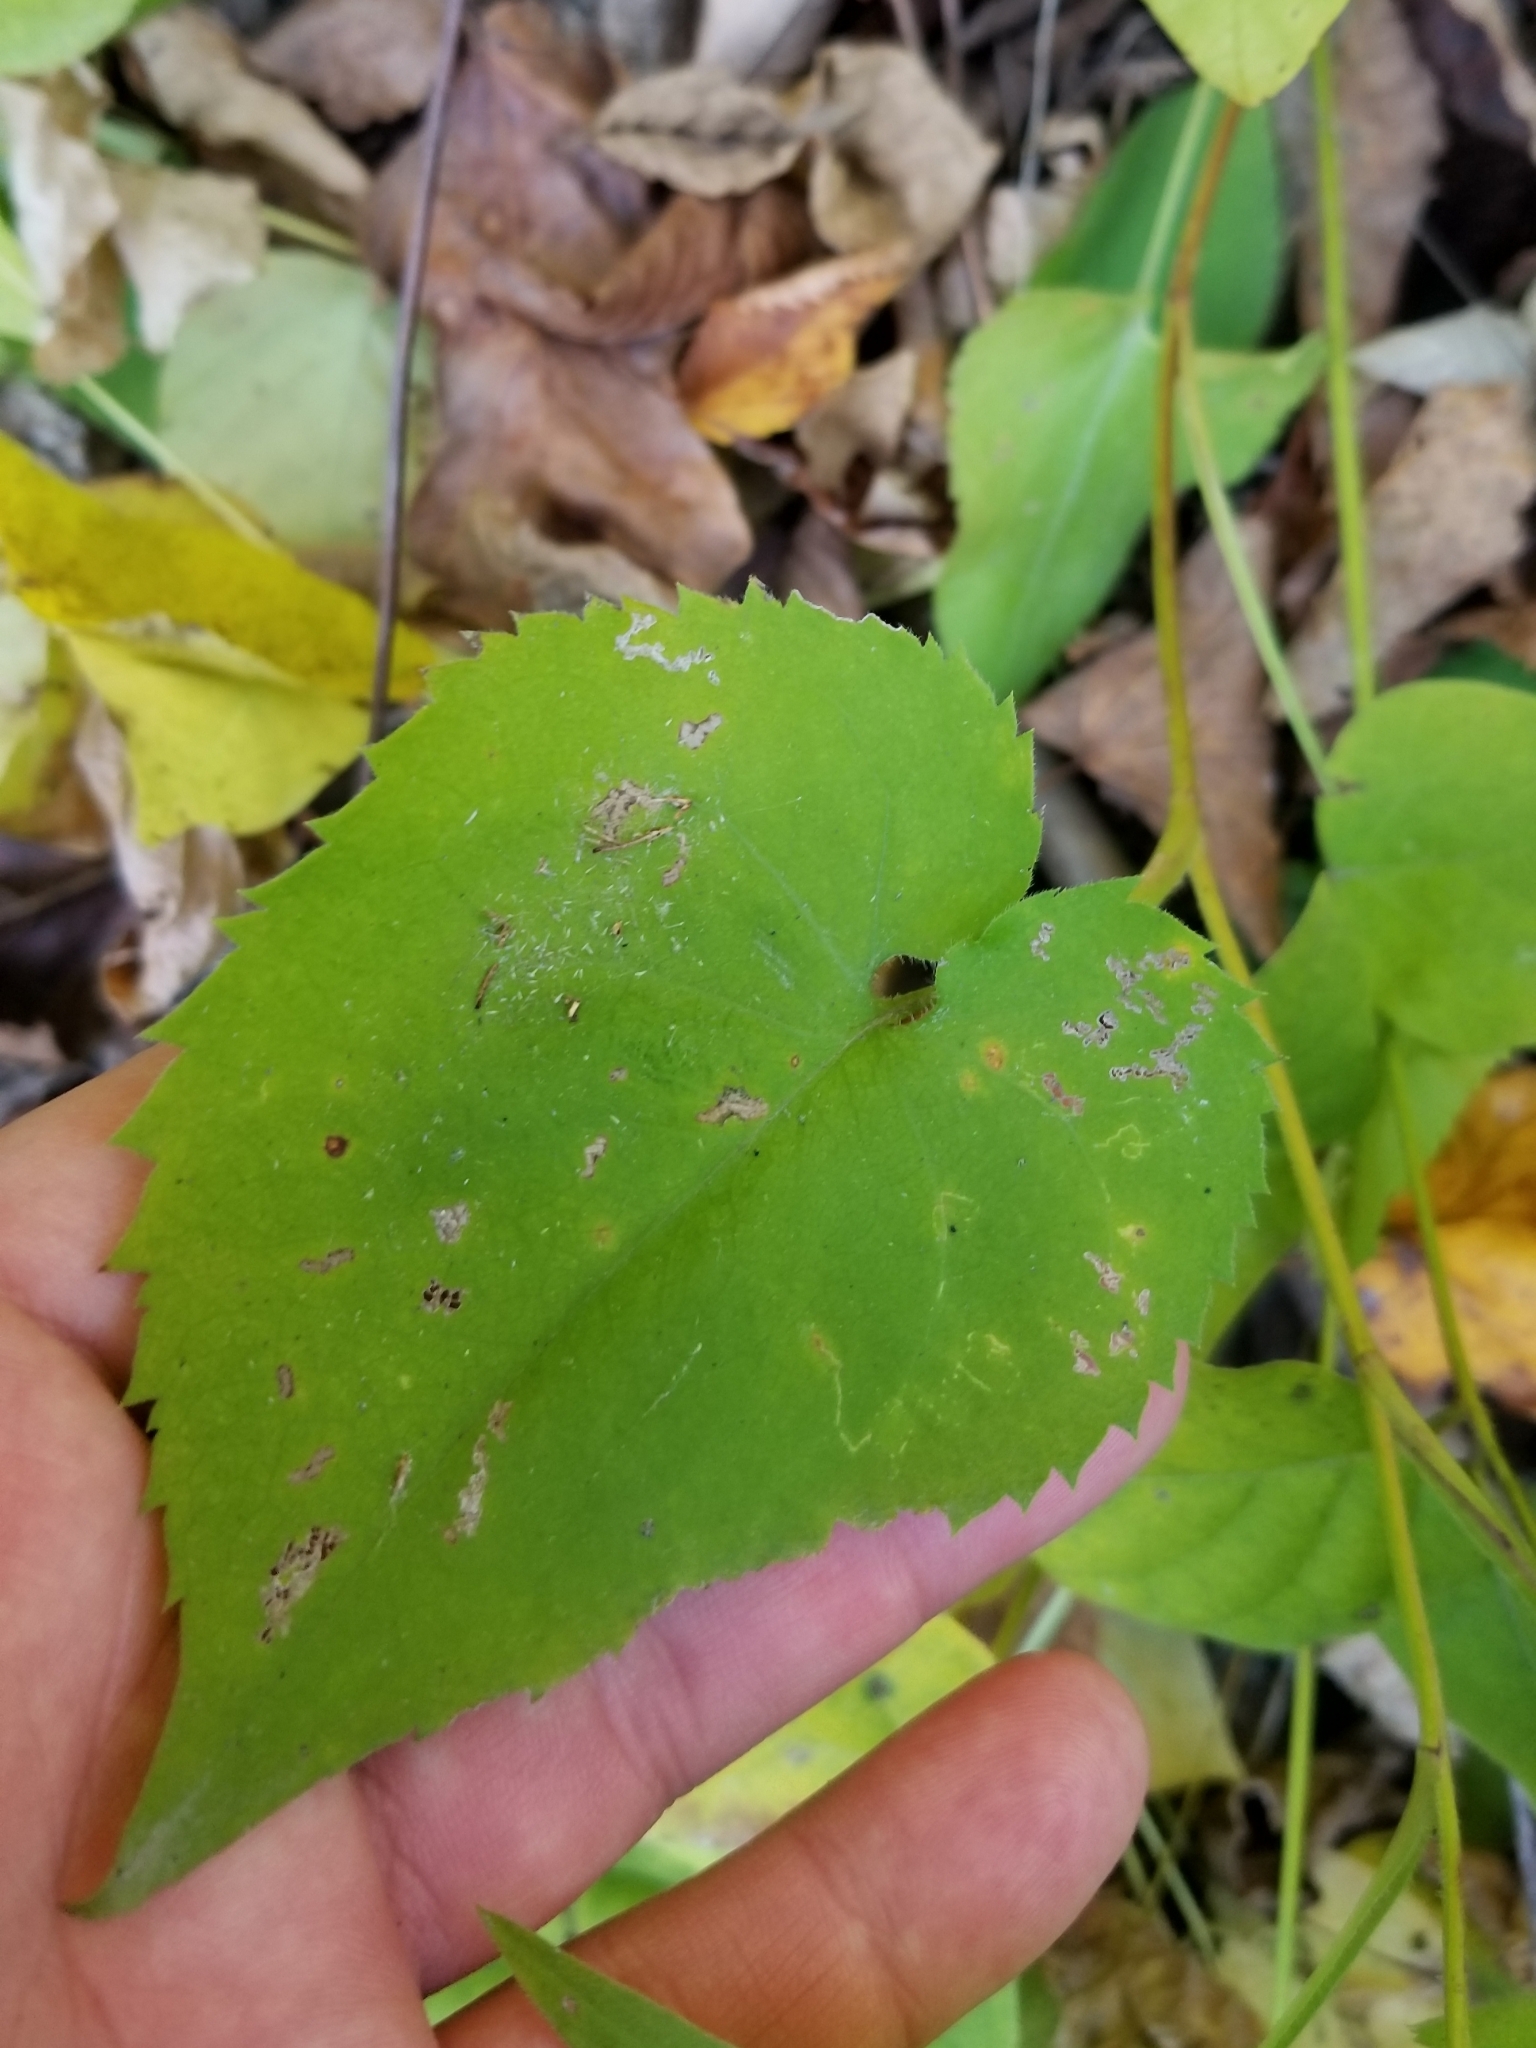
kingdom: Plantae
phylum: Tracheophyta
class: Magnoliopsida
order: Asterales
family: Asteraceae
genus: Symphyotrichum
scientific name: Symphyotrichum cordifolium
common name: Beeweed
